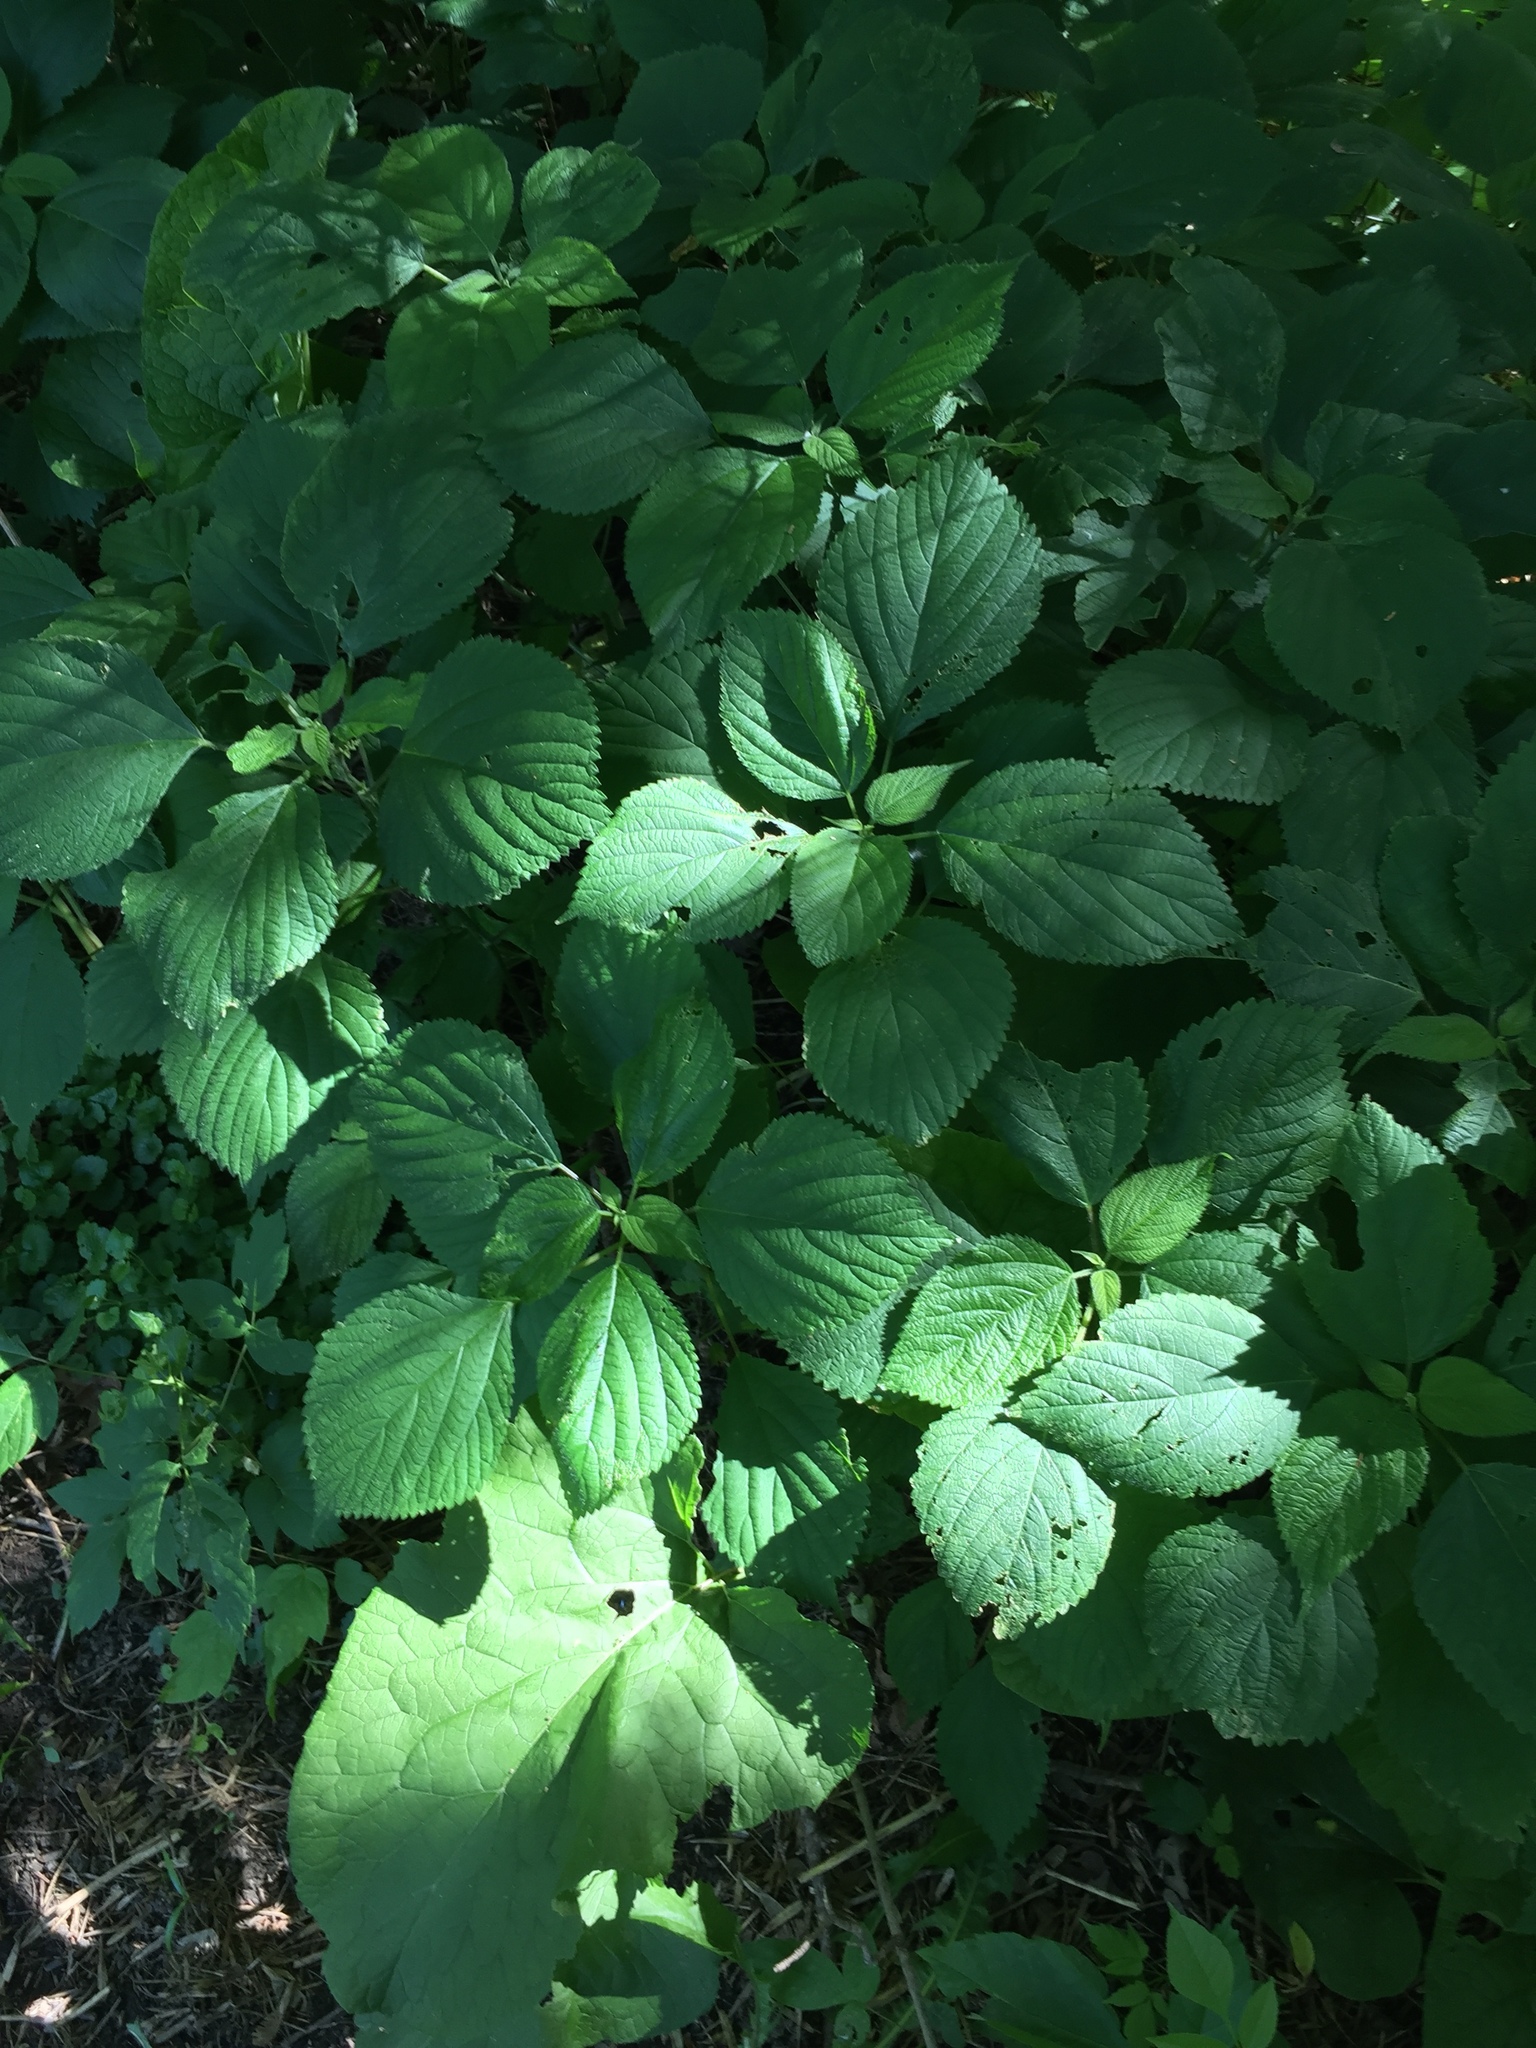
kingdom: Plantae
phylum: Tracheophyta
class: Magnoliopsida
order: Rosales
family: Urticaceae
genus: Laportea
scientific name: Laportea canadensis
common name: Canada nettle
